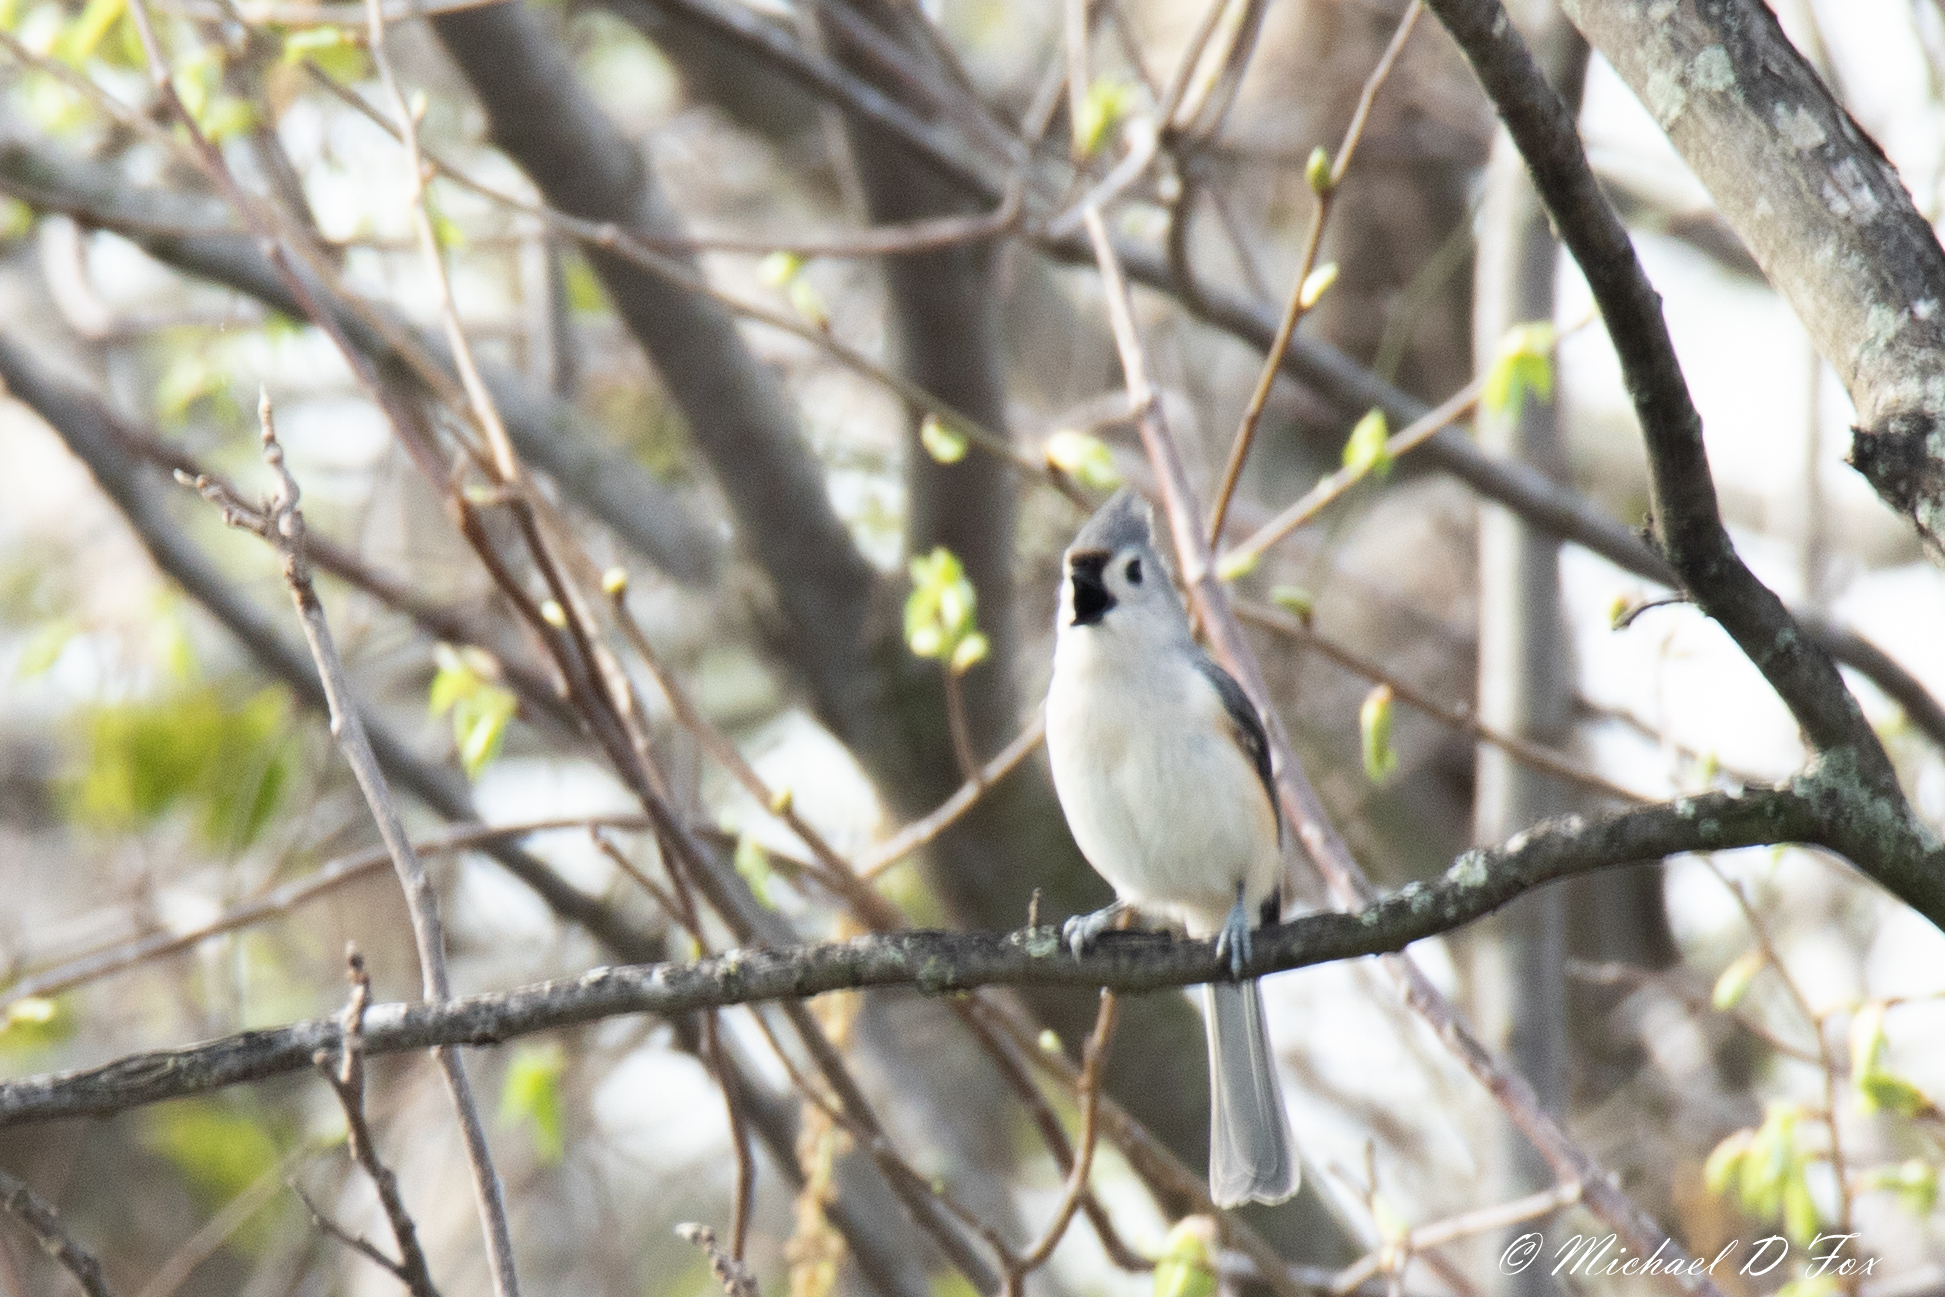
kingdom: Animalia
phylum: Chordata
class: Aves
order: Passeriformes
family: Paridae
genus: Baeolophus
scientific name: Baeolophus bicolor
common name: Tufted titmouse
